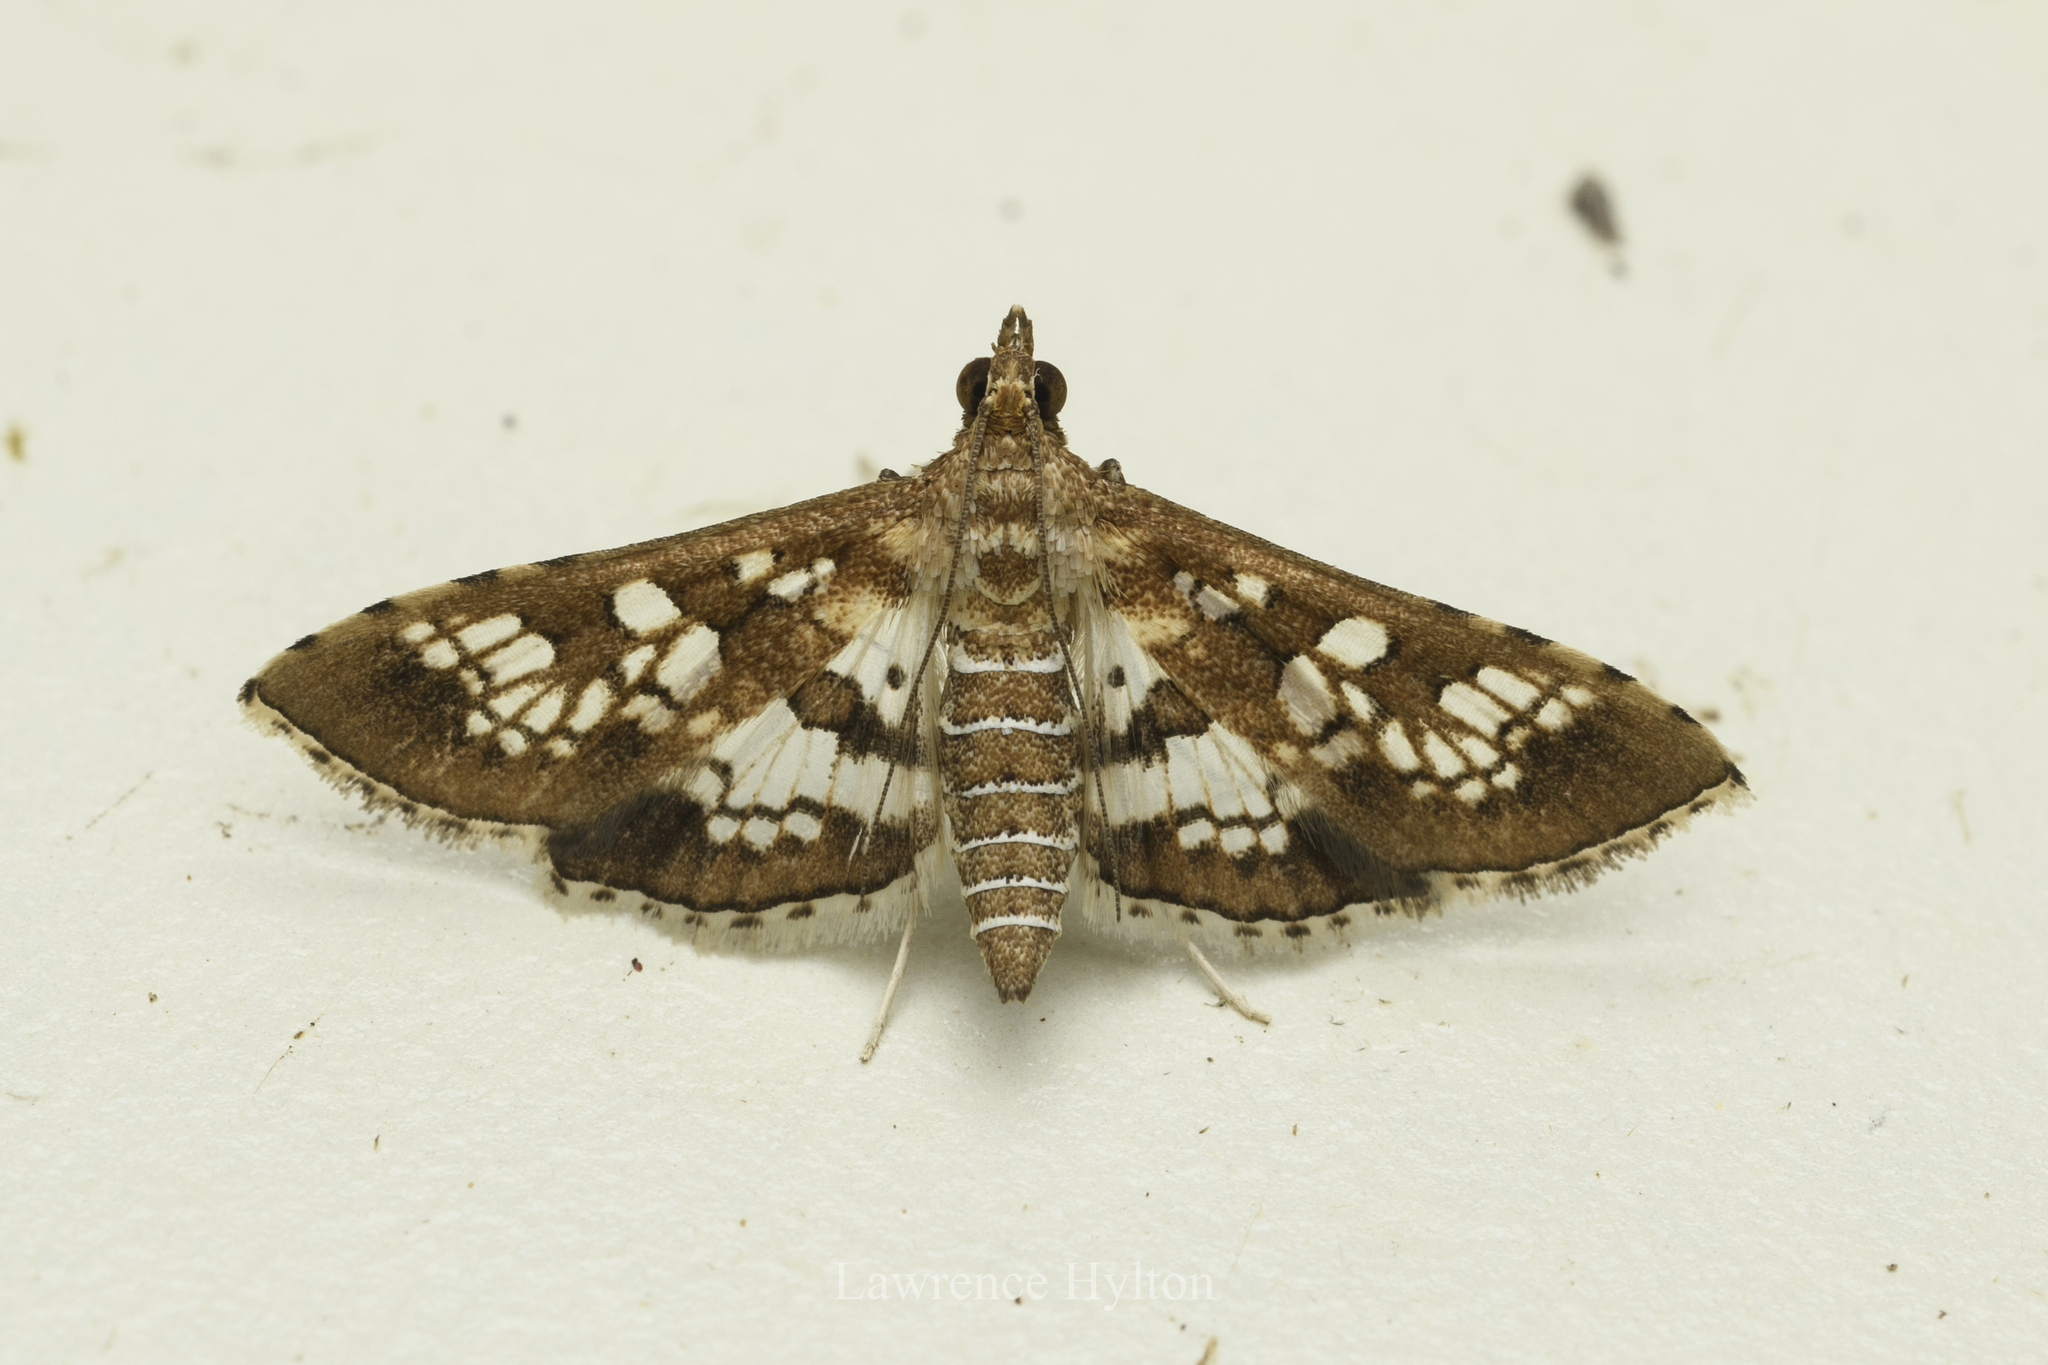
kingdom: Animalia
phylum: Arthropoda
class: Insecta
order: Lepidoptera
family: Crambidae
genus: Sameodes
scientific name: Sameodes cancellalis
